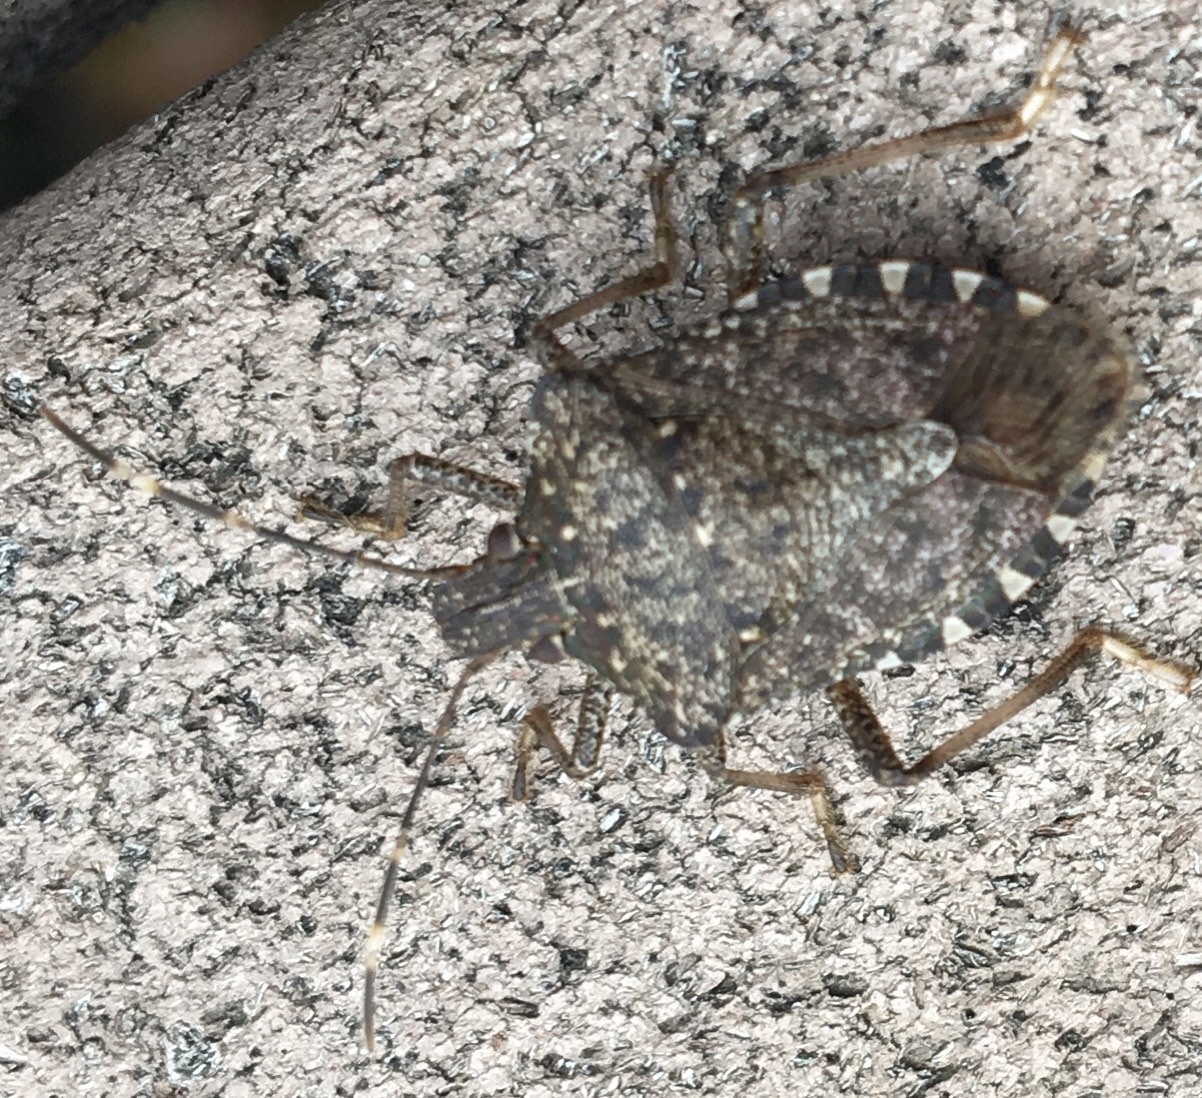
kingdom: Animalia
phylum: Arthropoda
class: Insecta
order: Hemiptera
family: Pentatomidae
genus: Halyomorpha
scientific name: Halyomorpha halys
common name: Brown marmorated stink bug
